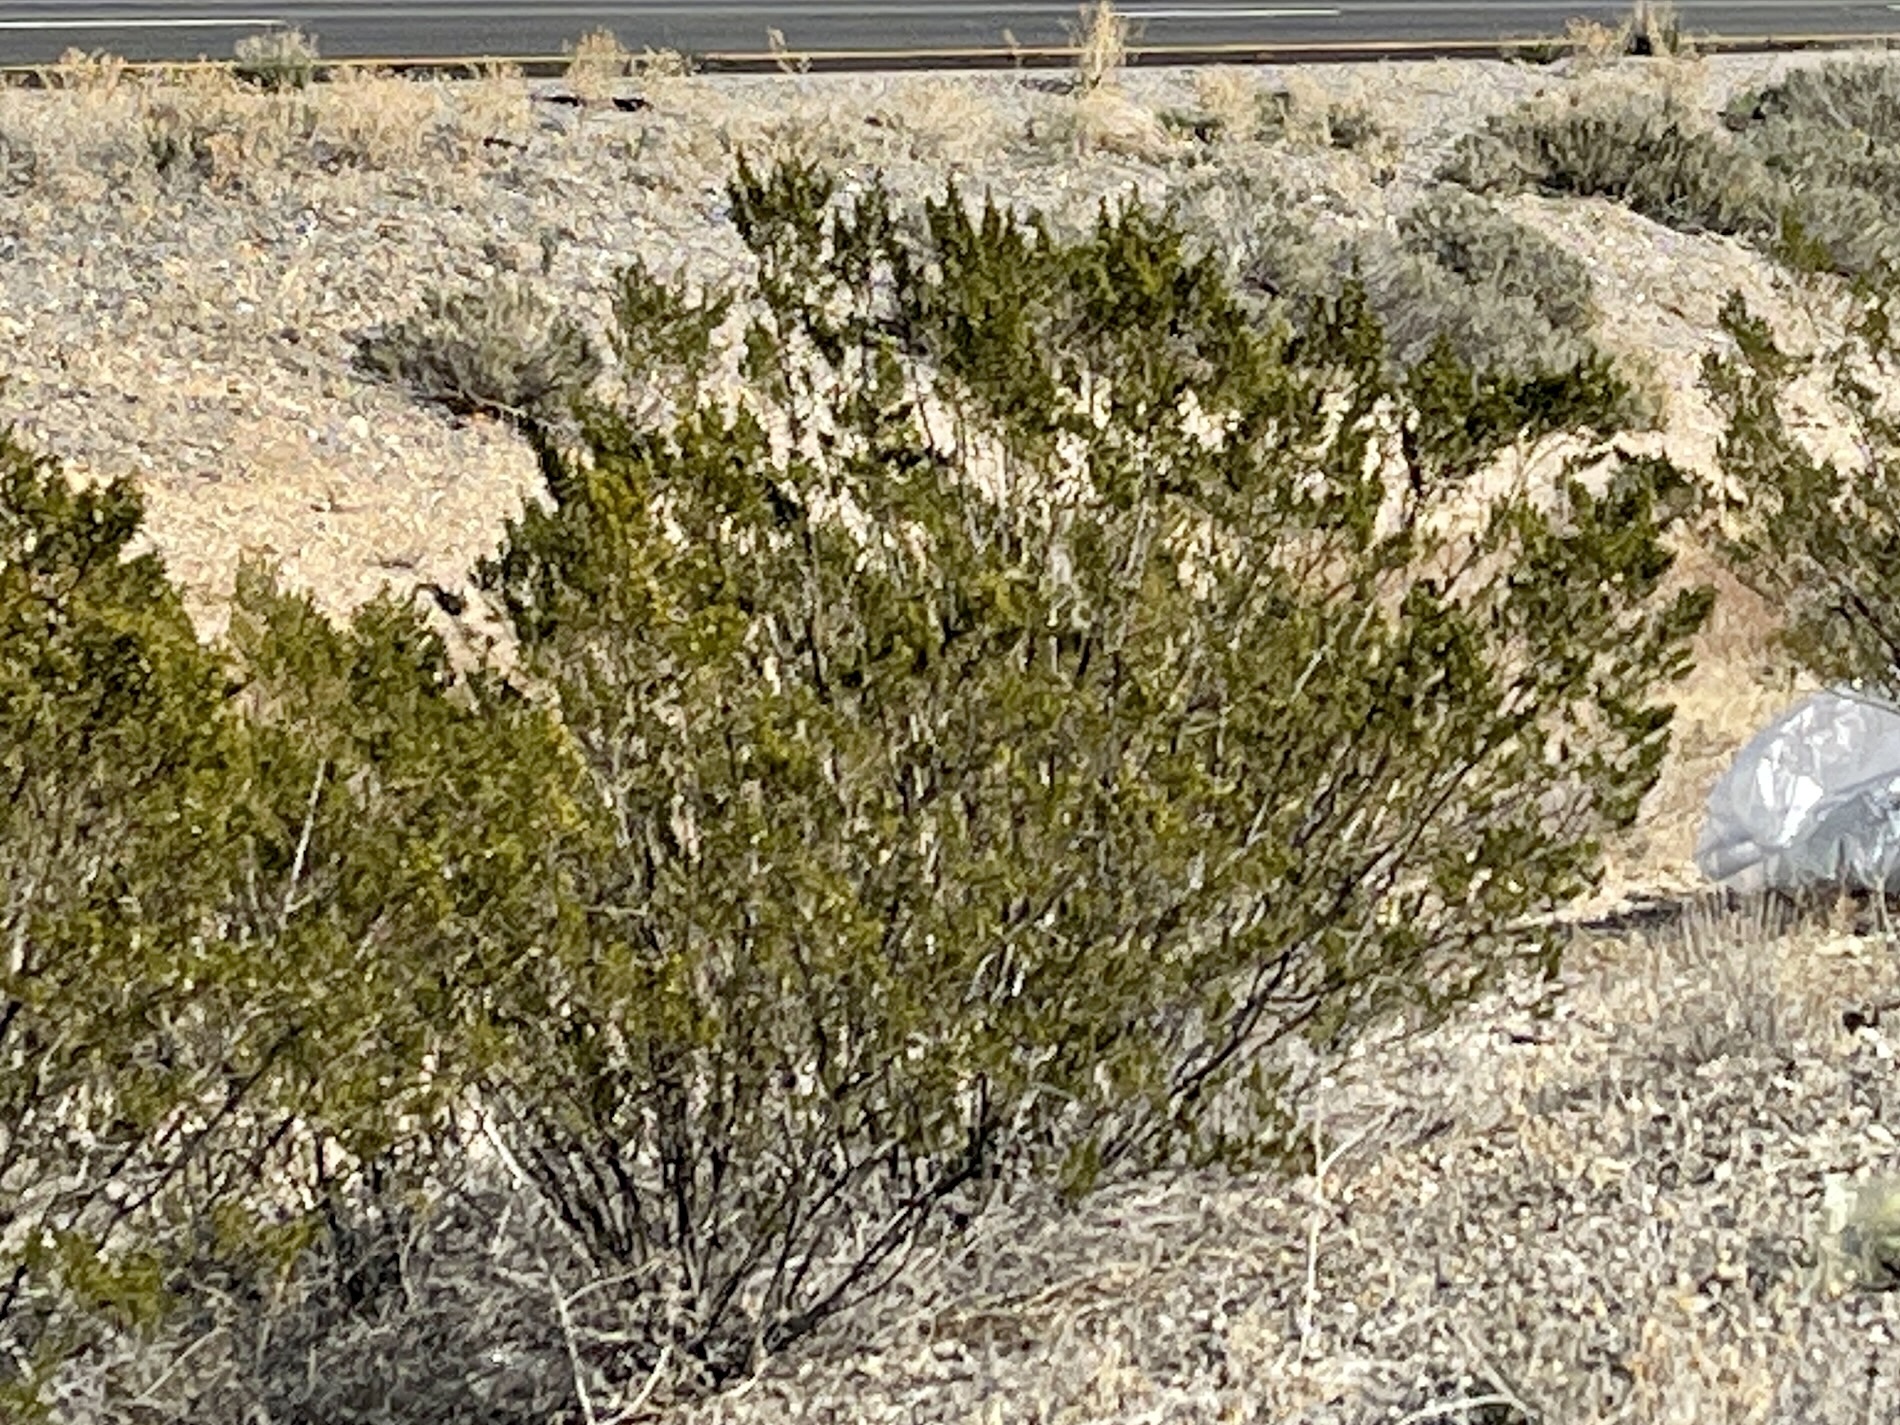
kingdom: Plantae
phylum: Tracheophyta
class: Magnoliopsida
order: Zygophyllales
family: Zygophyllaceae
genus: Larrea
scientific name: Larrea tridentata
